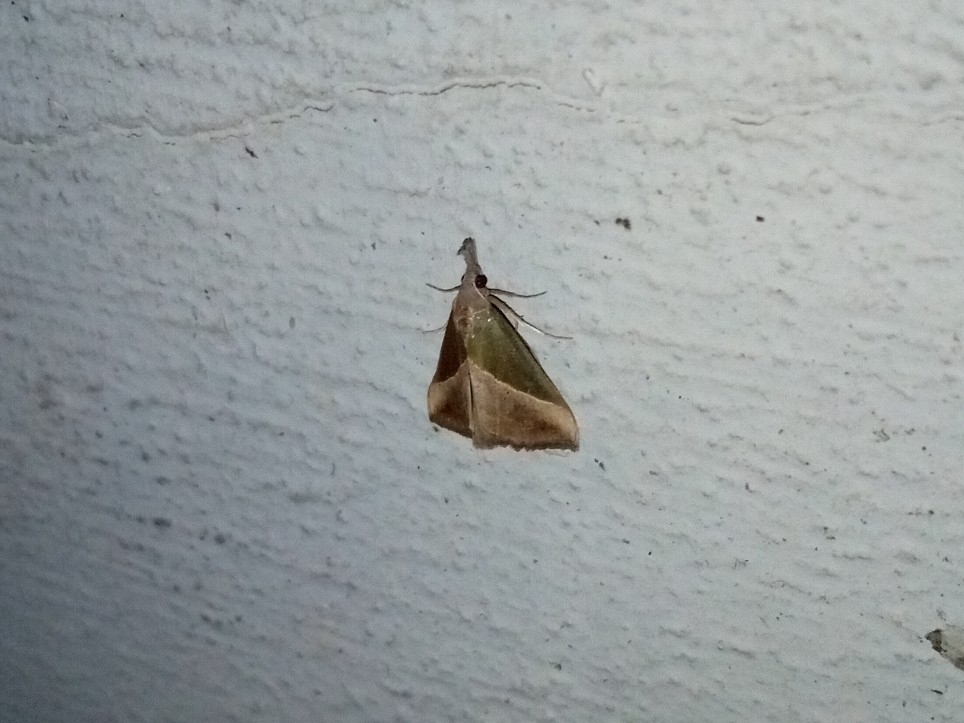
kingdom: Animalia
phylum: Arthropoda
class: Insecta
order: Lepidoptera
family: Erebidae
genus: Hypena
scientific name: Hypena lividalis
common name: Chevron snout
